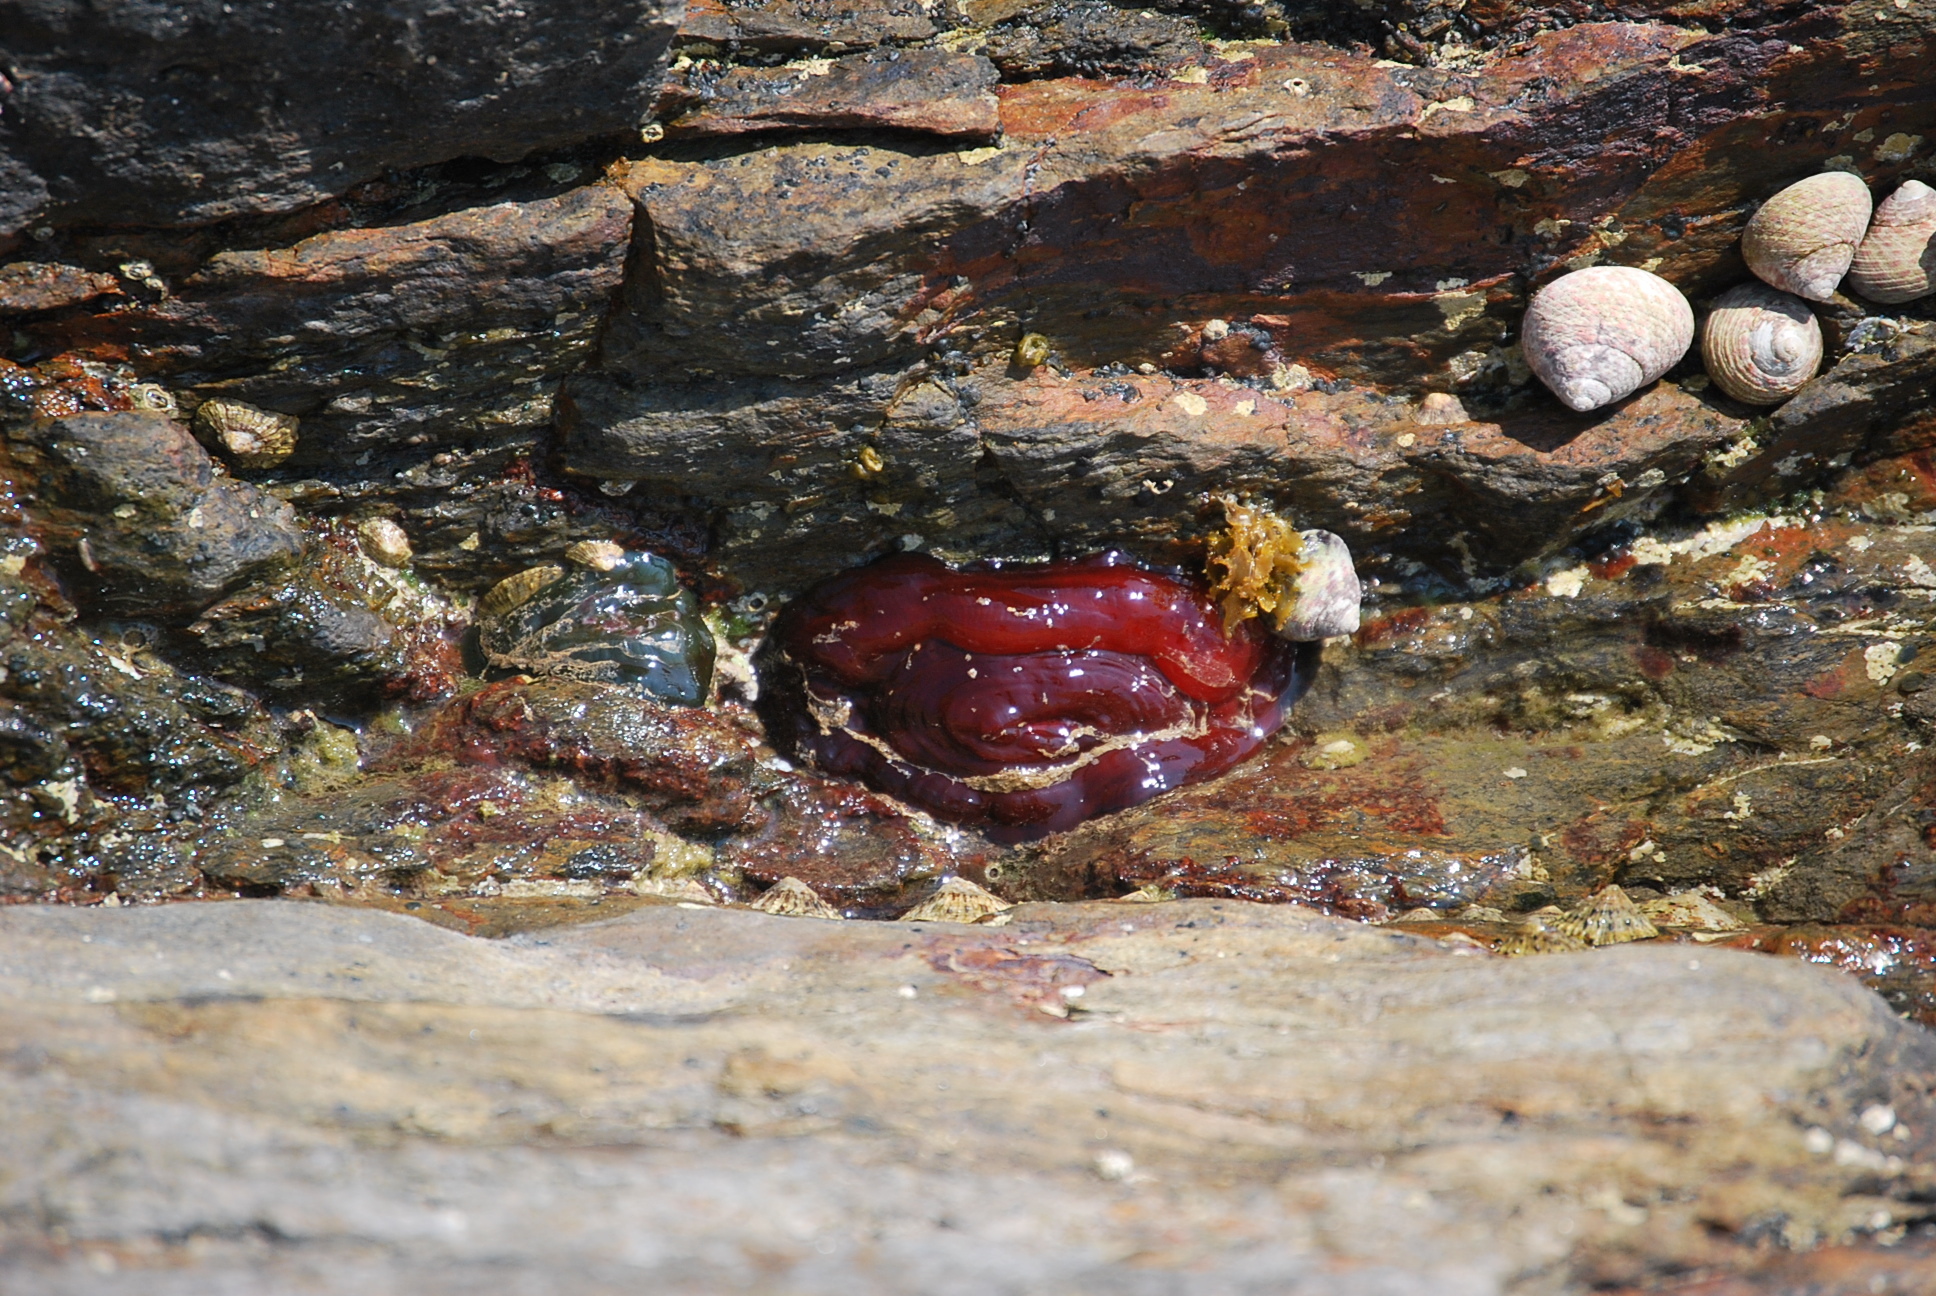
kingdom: Animalia
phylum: Cnidaria
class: Anthozoa
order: Actiniaria
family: Actiniidae
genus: Actinia
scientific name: Actinia mediterranea
